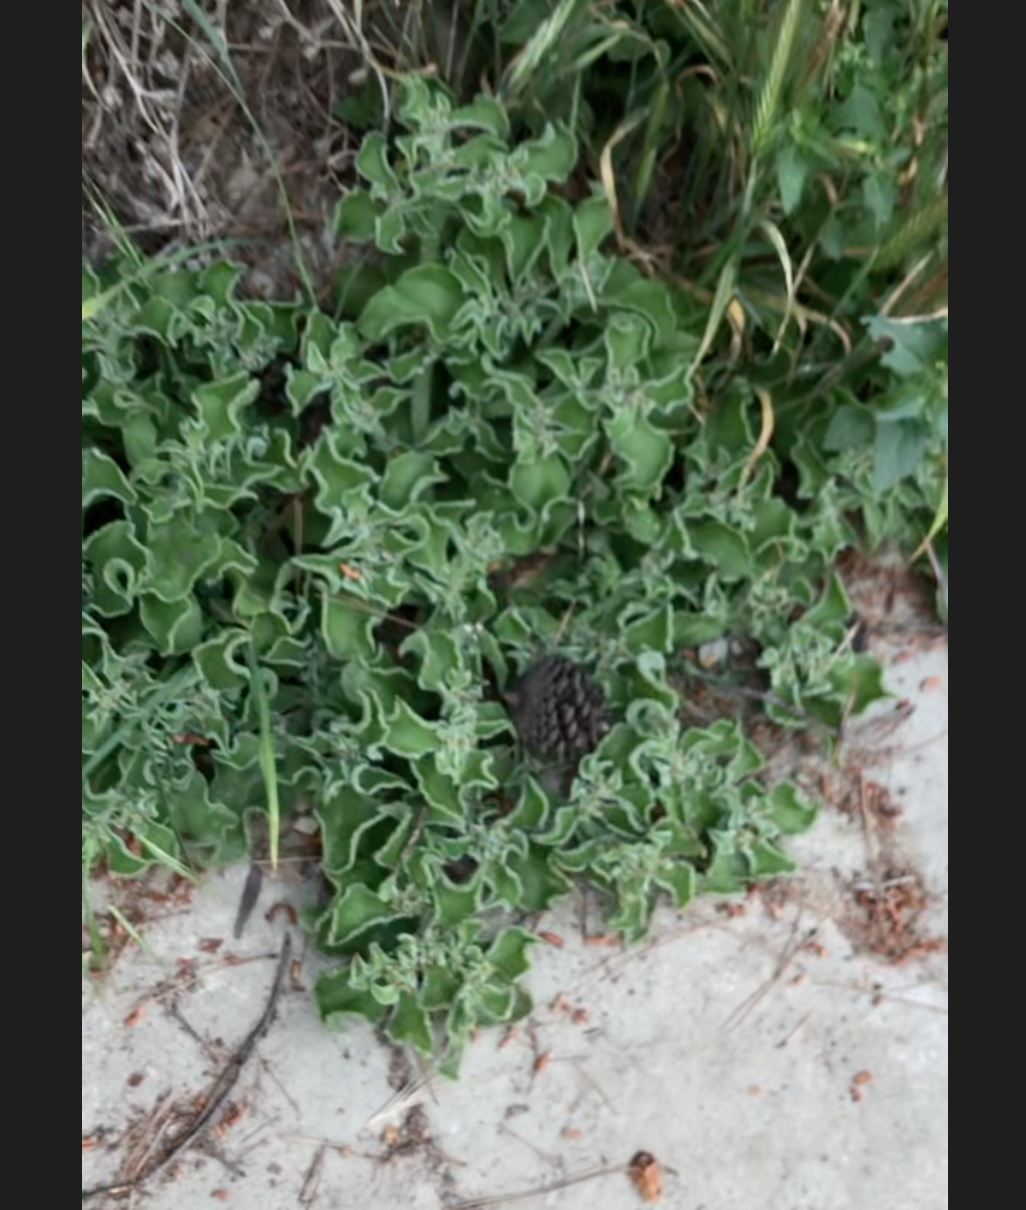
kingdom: Plantae
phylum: Tracheophyta
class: Magnoliopsida
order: Caryophyllales
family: Aizoaceae
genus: Mesembryanthemum
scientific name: Mesembryanthemum crystallinum
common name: Common iceplant
